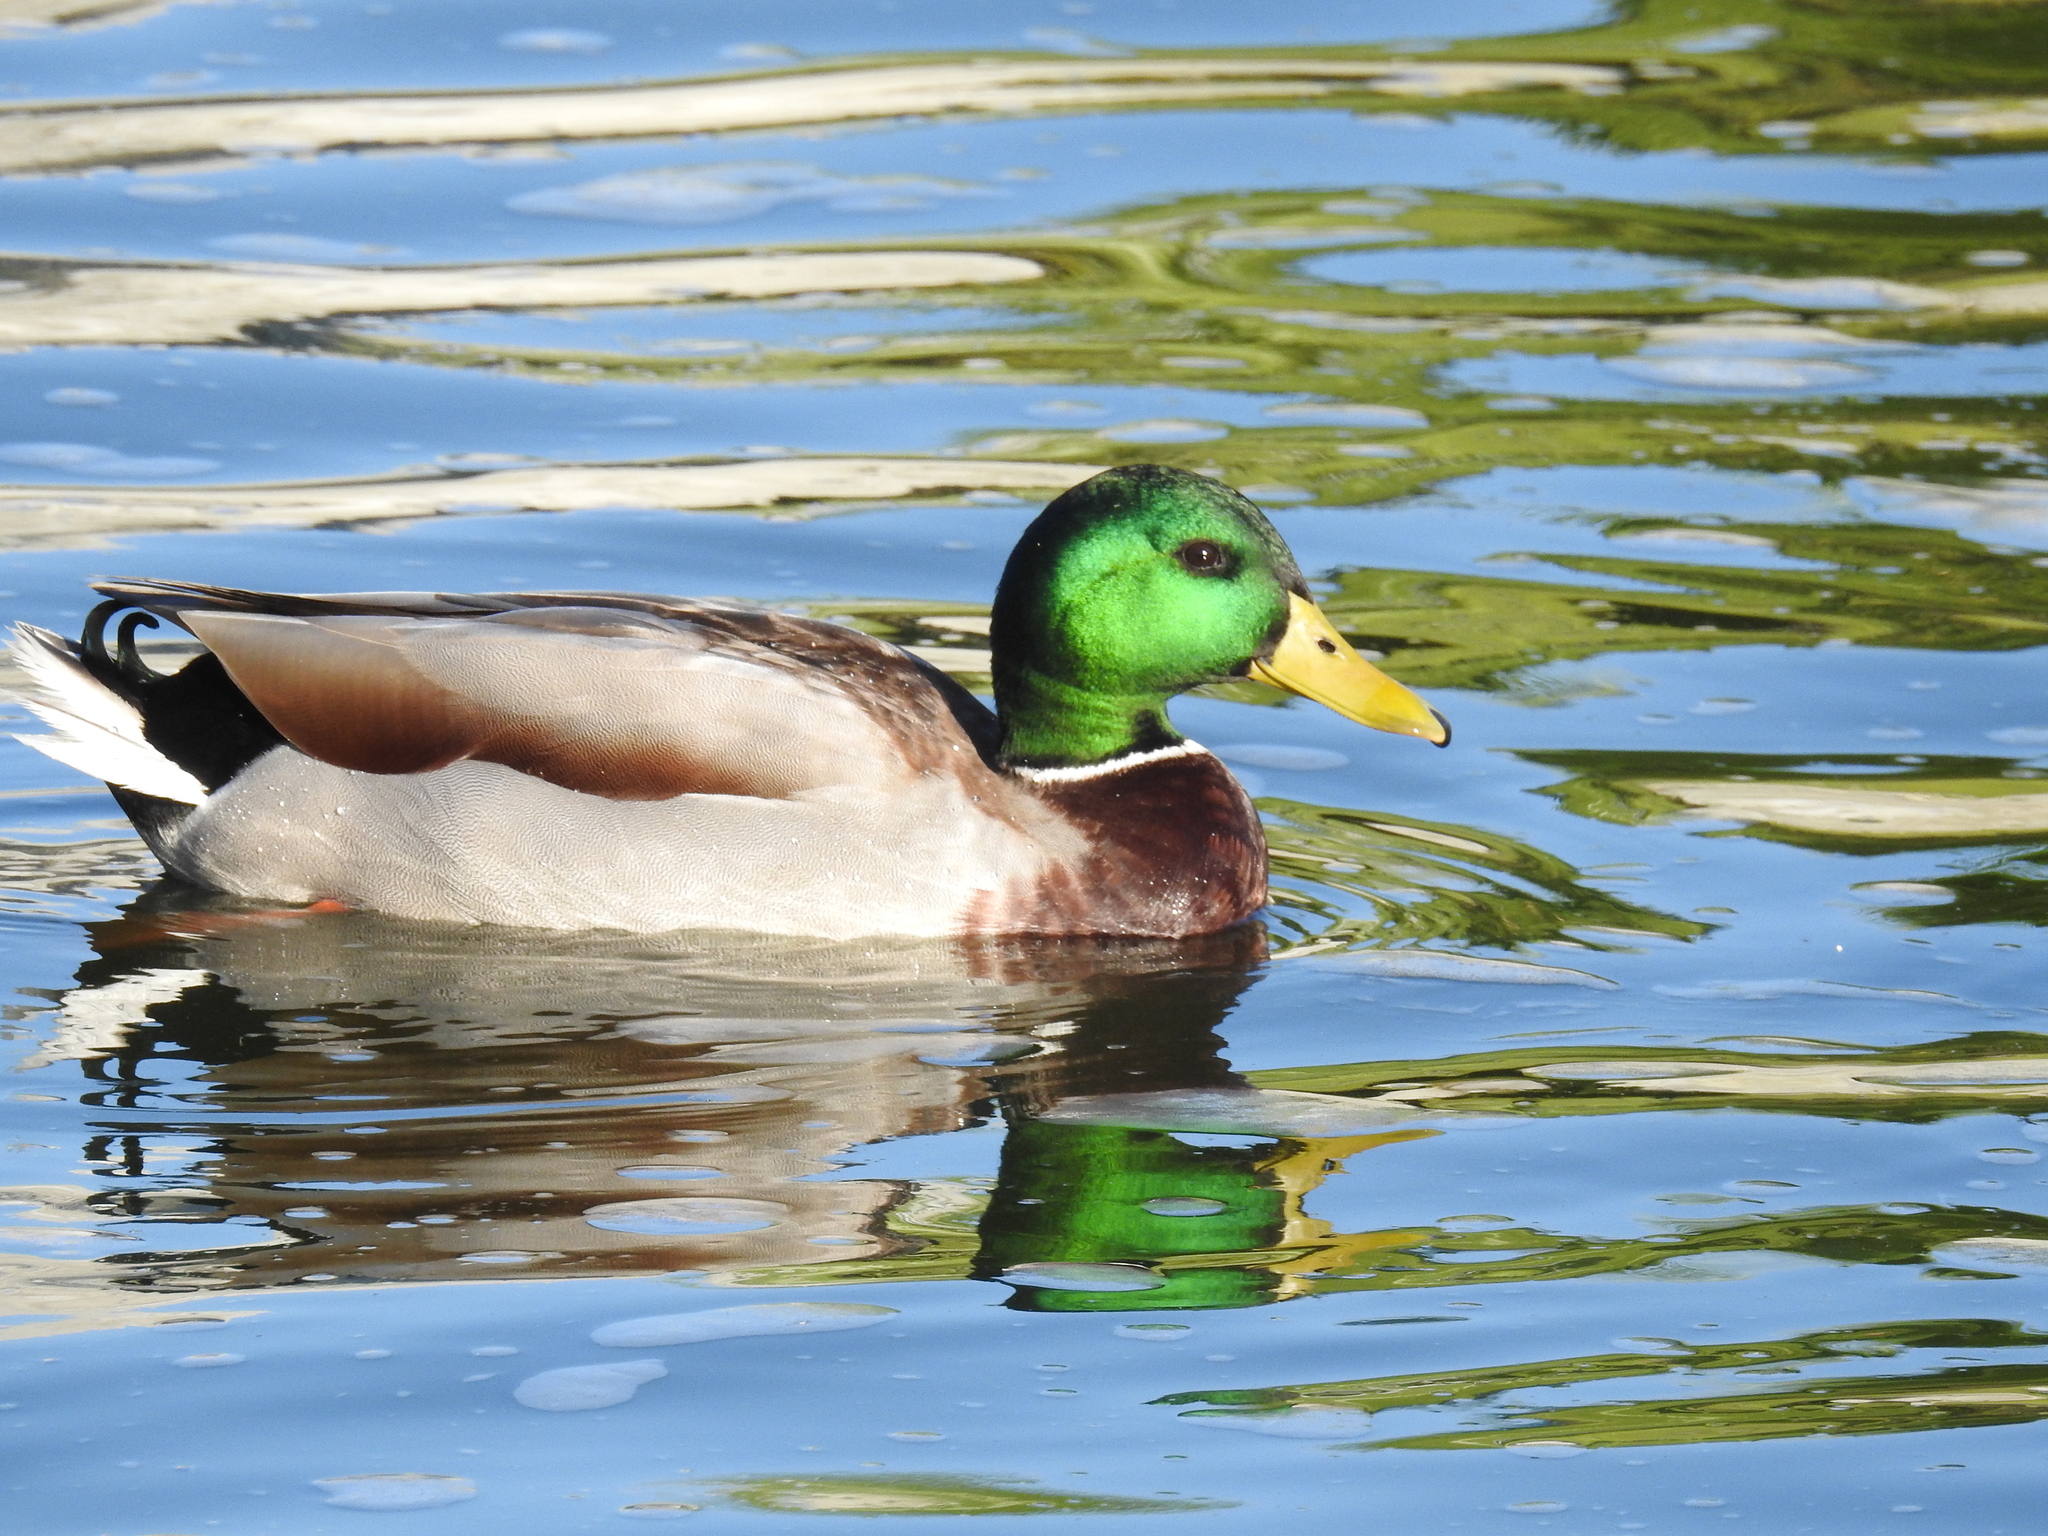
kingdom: Animalia
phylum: Chordata
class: Aves
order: Anseriformes
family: Anatidae
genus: Anas
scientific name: Anas platyrhynchos
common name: Mallard
